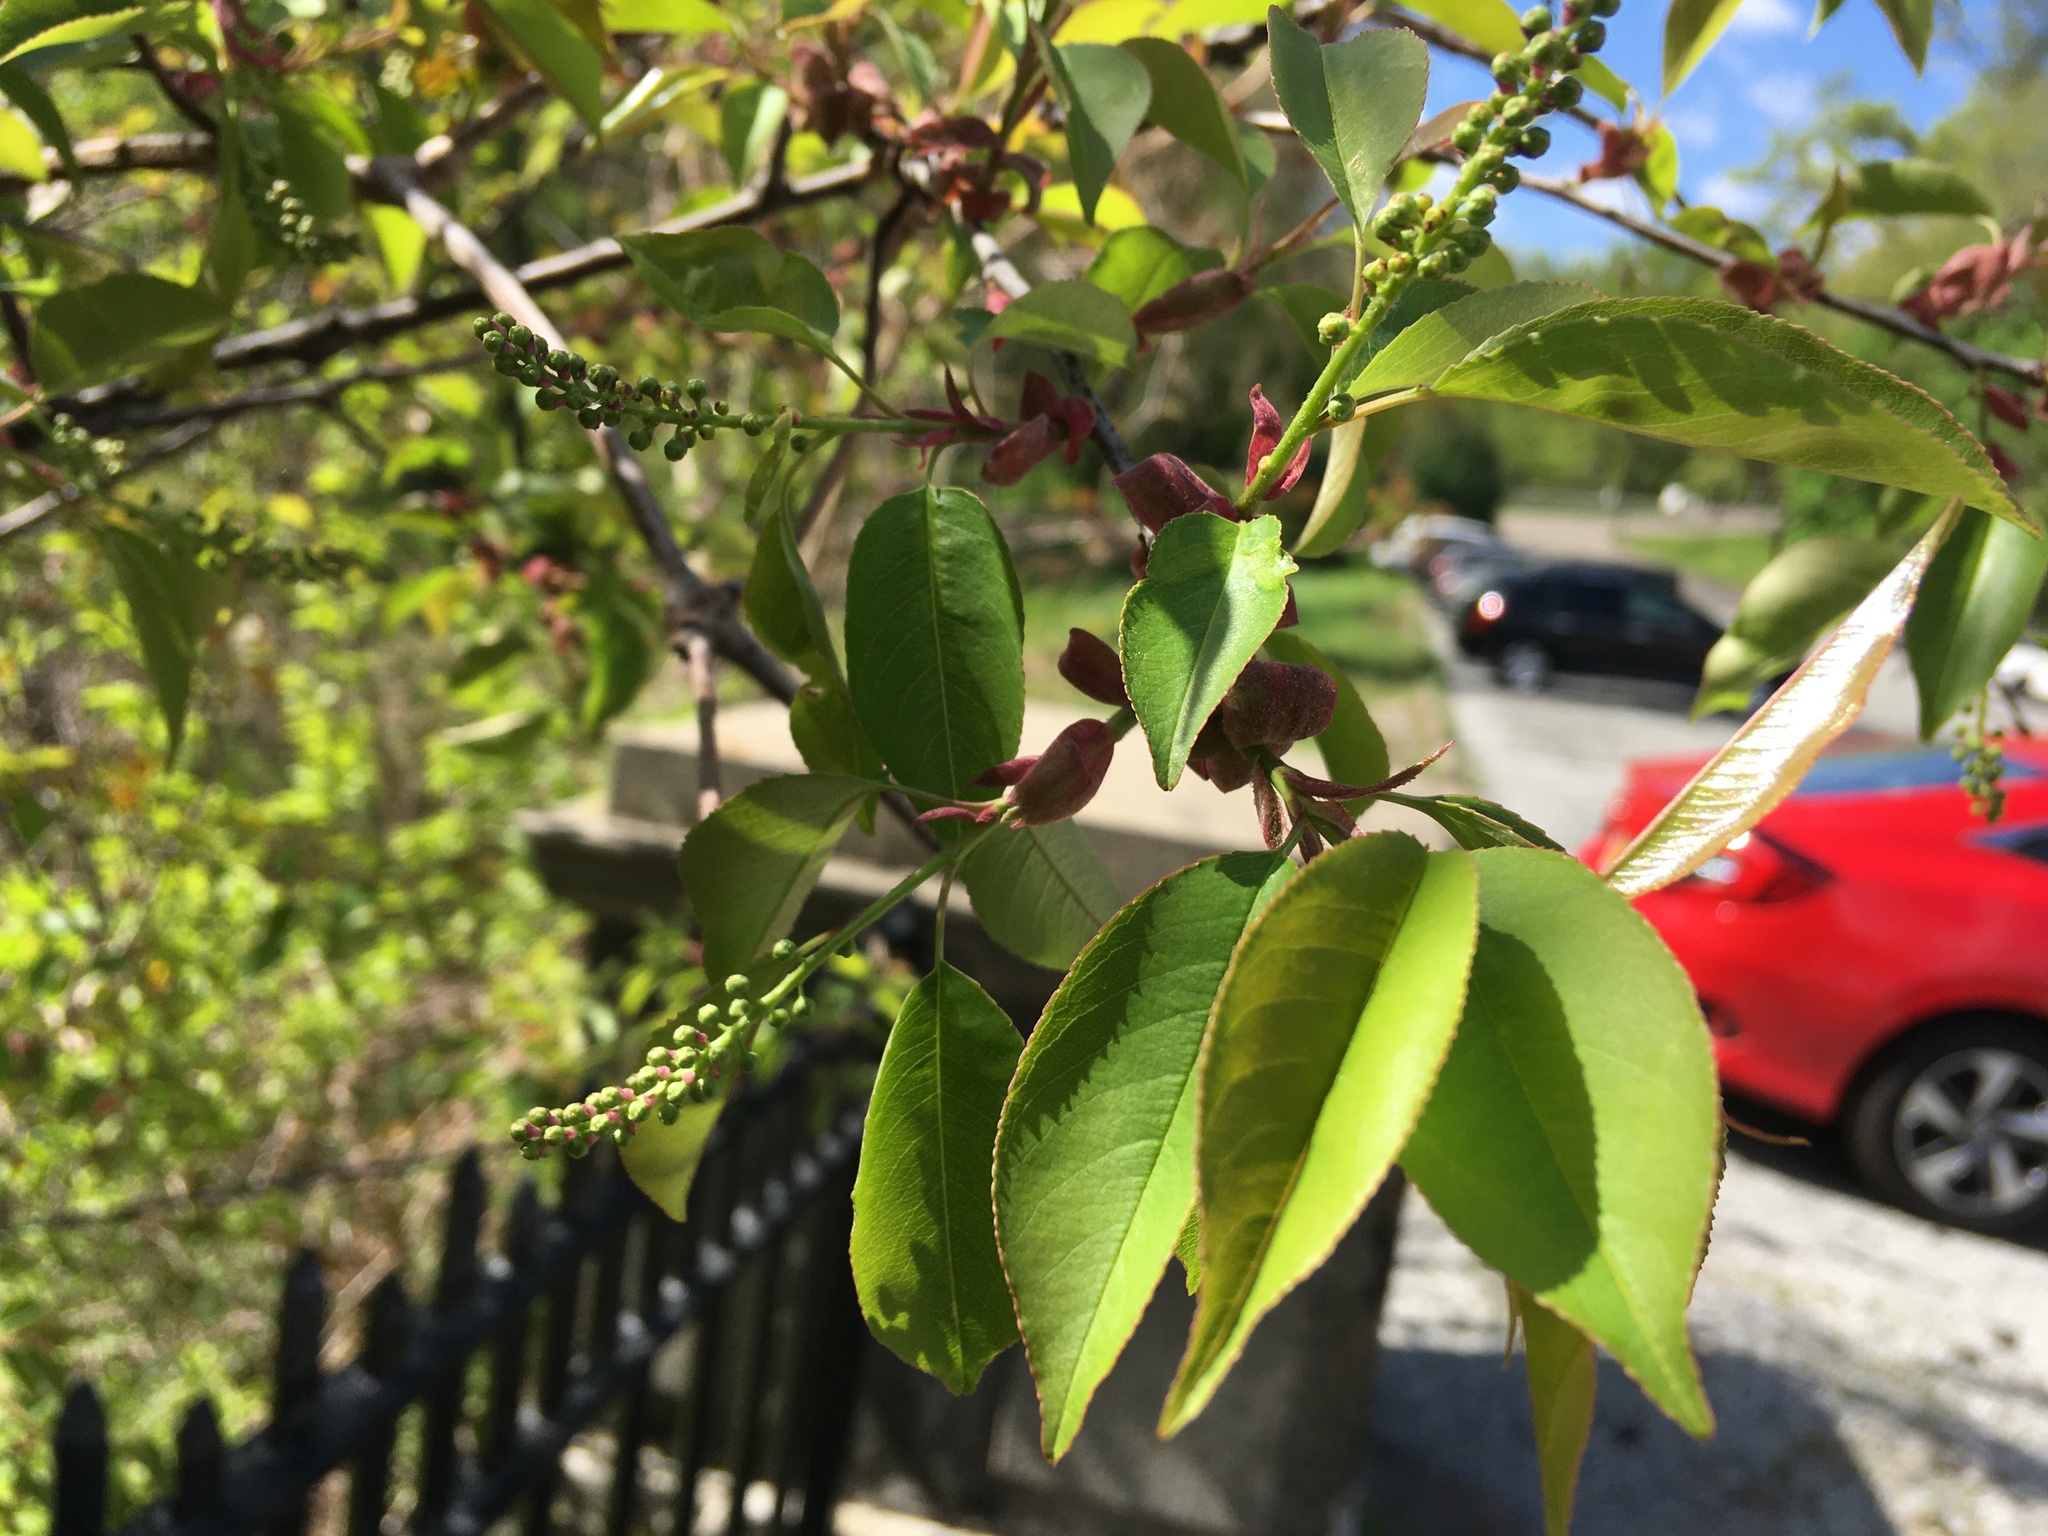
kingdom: Plantae
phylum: Tracheophyta
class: Magnoliopsida
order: Rosales
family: Rosaceae
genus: Prunus
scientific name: Prunus serotina
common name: Black cherry
